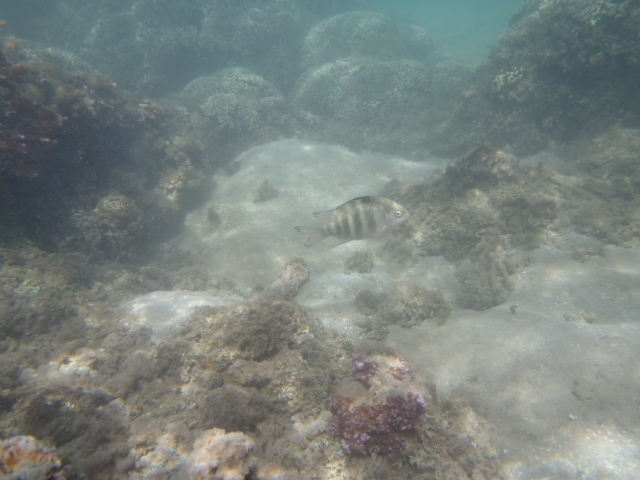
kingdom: Animalia
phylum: Chordata
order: Perciformes
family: Pomacentridae
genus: Abudefduf
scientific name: Abudefduf septemfasciatus
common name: Banded sergeant
